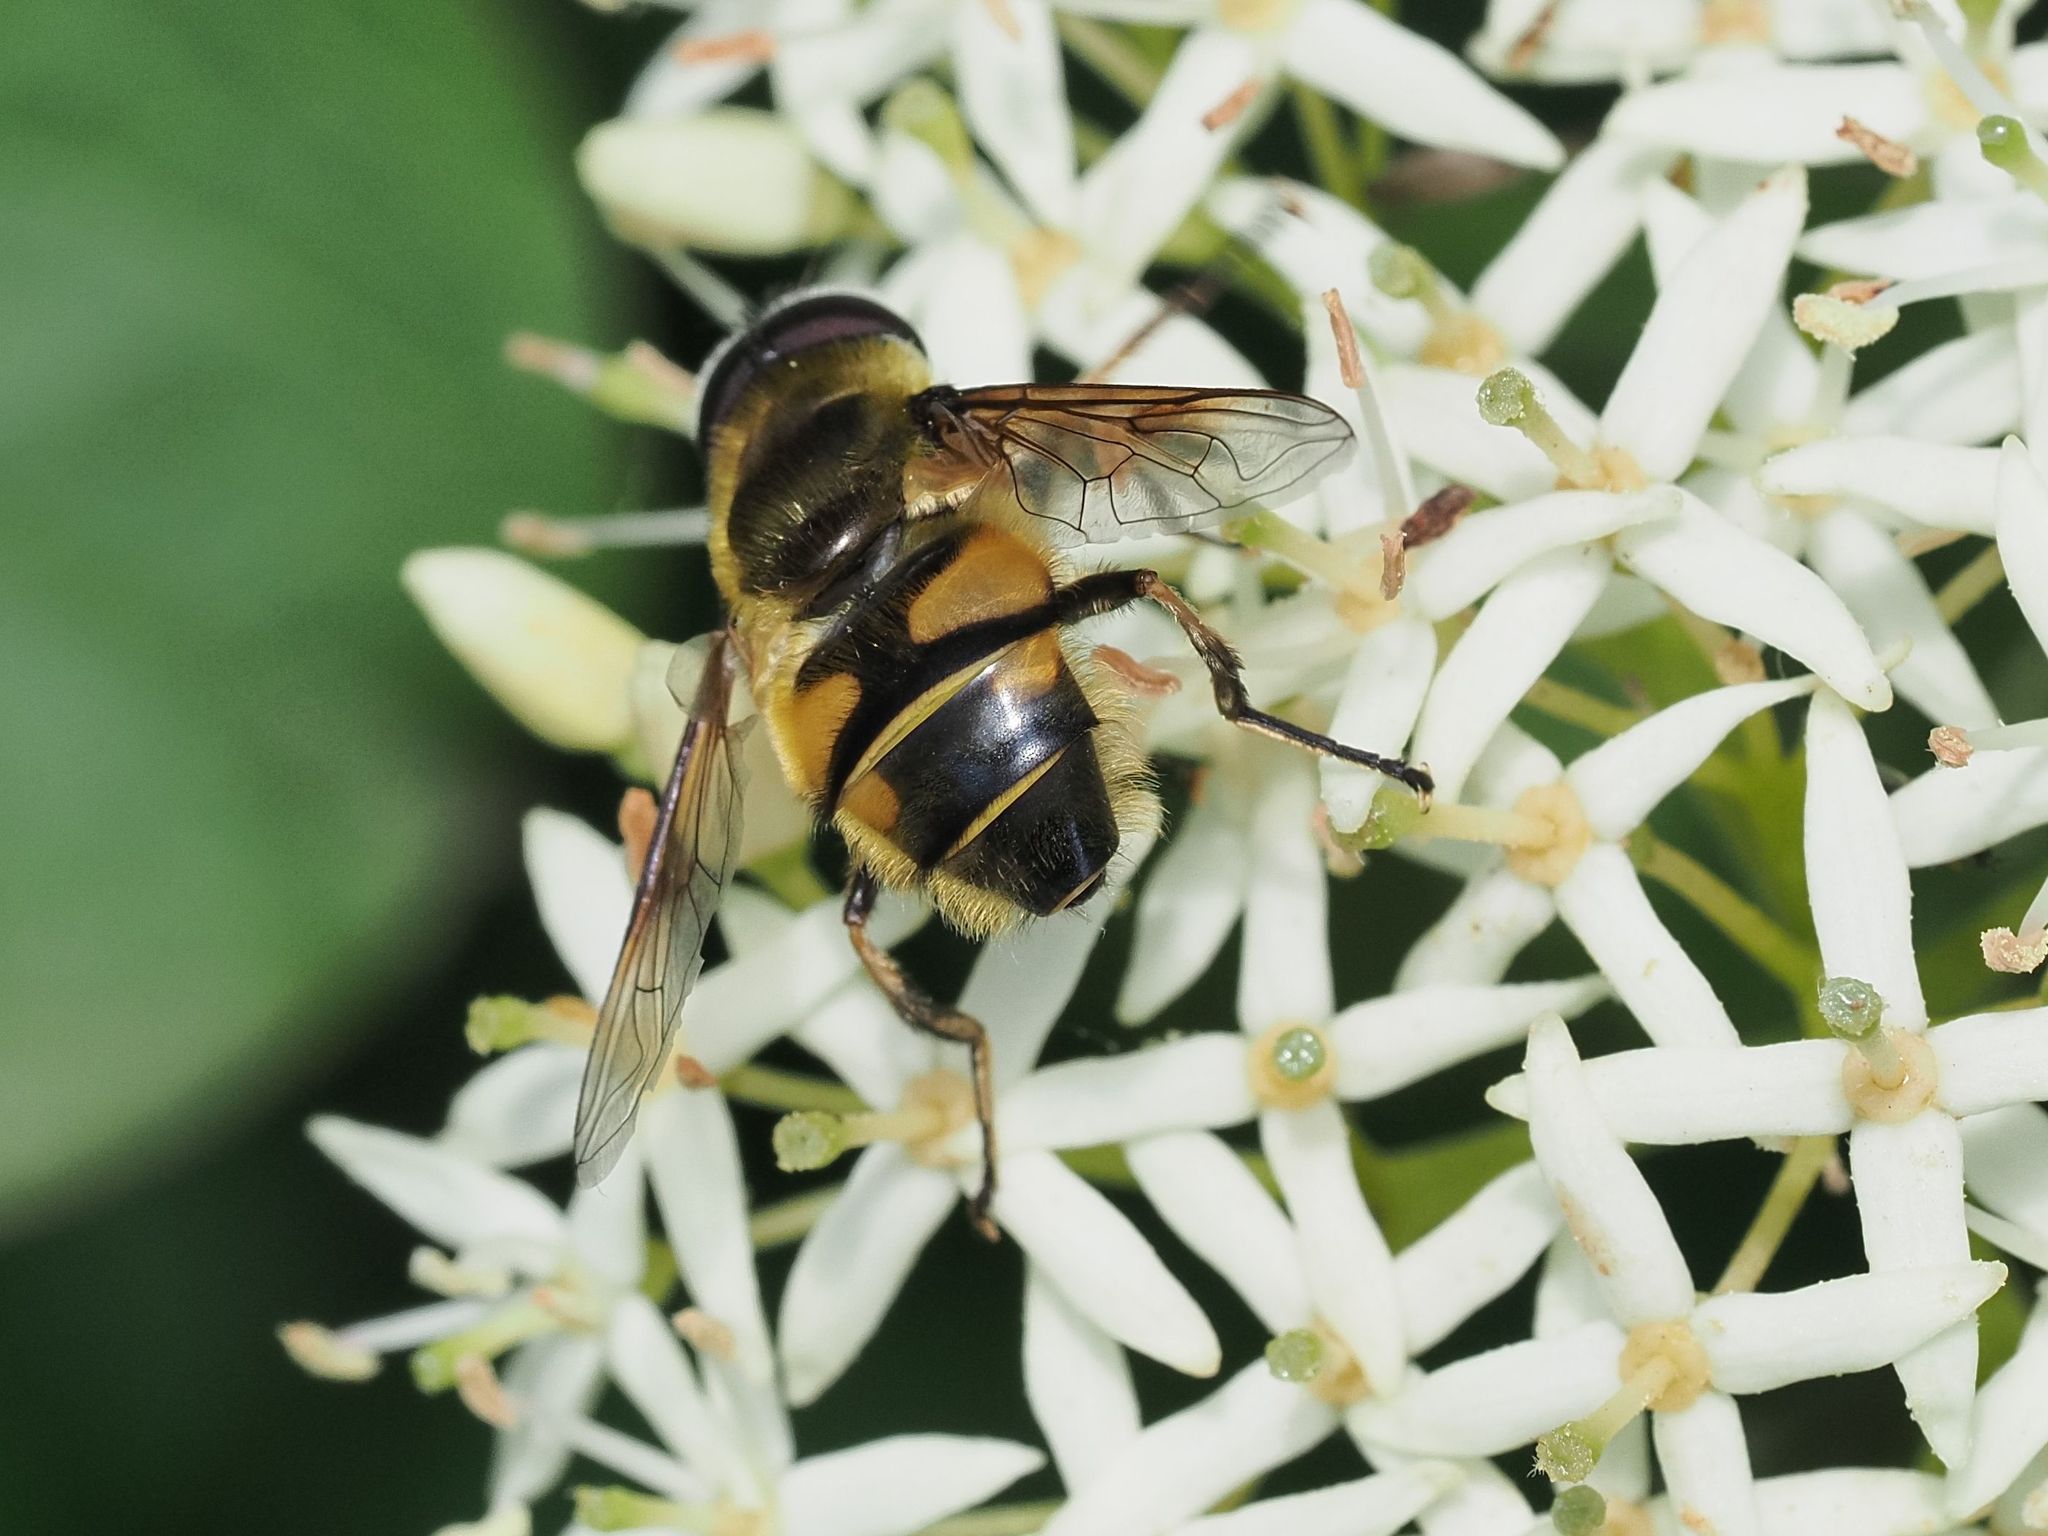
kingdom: Animalia
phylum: Arthropoda
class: Insecta
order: Diptera
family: Syrphidae
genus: Myathropa
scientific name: Myathropa florea
